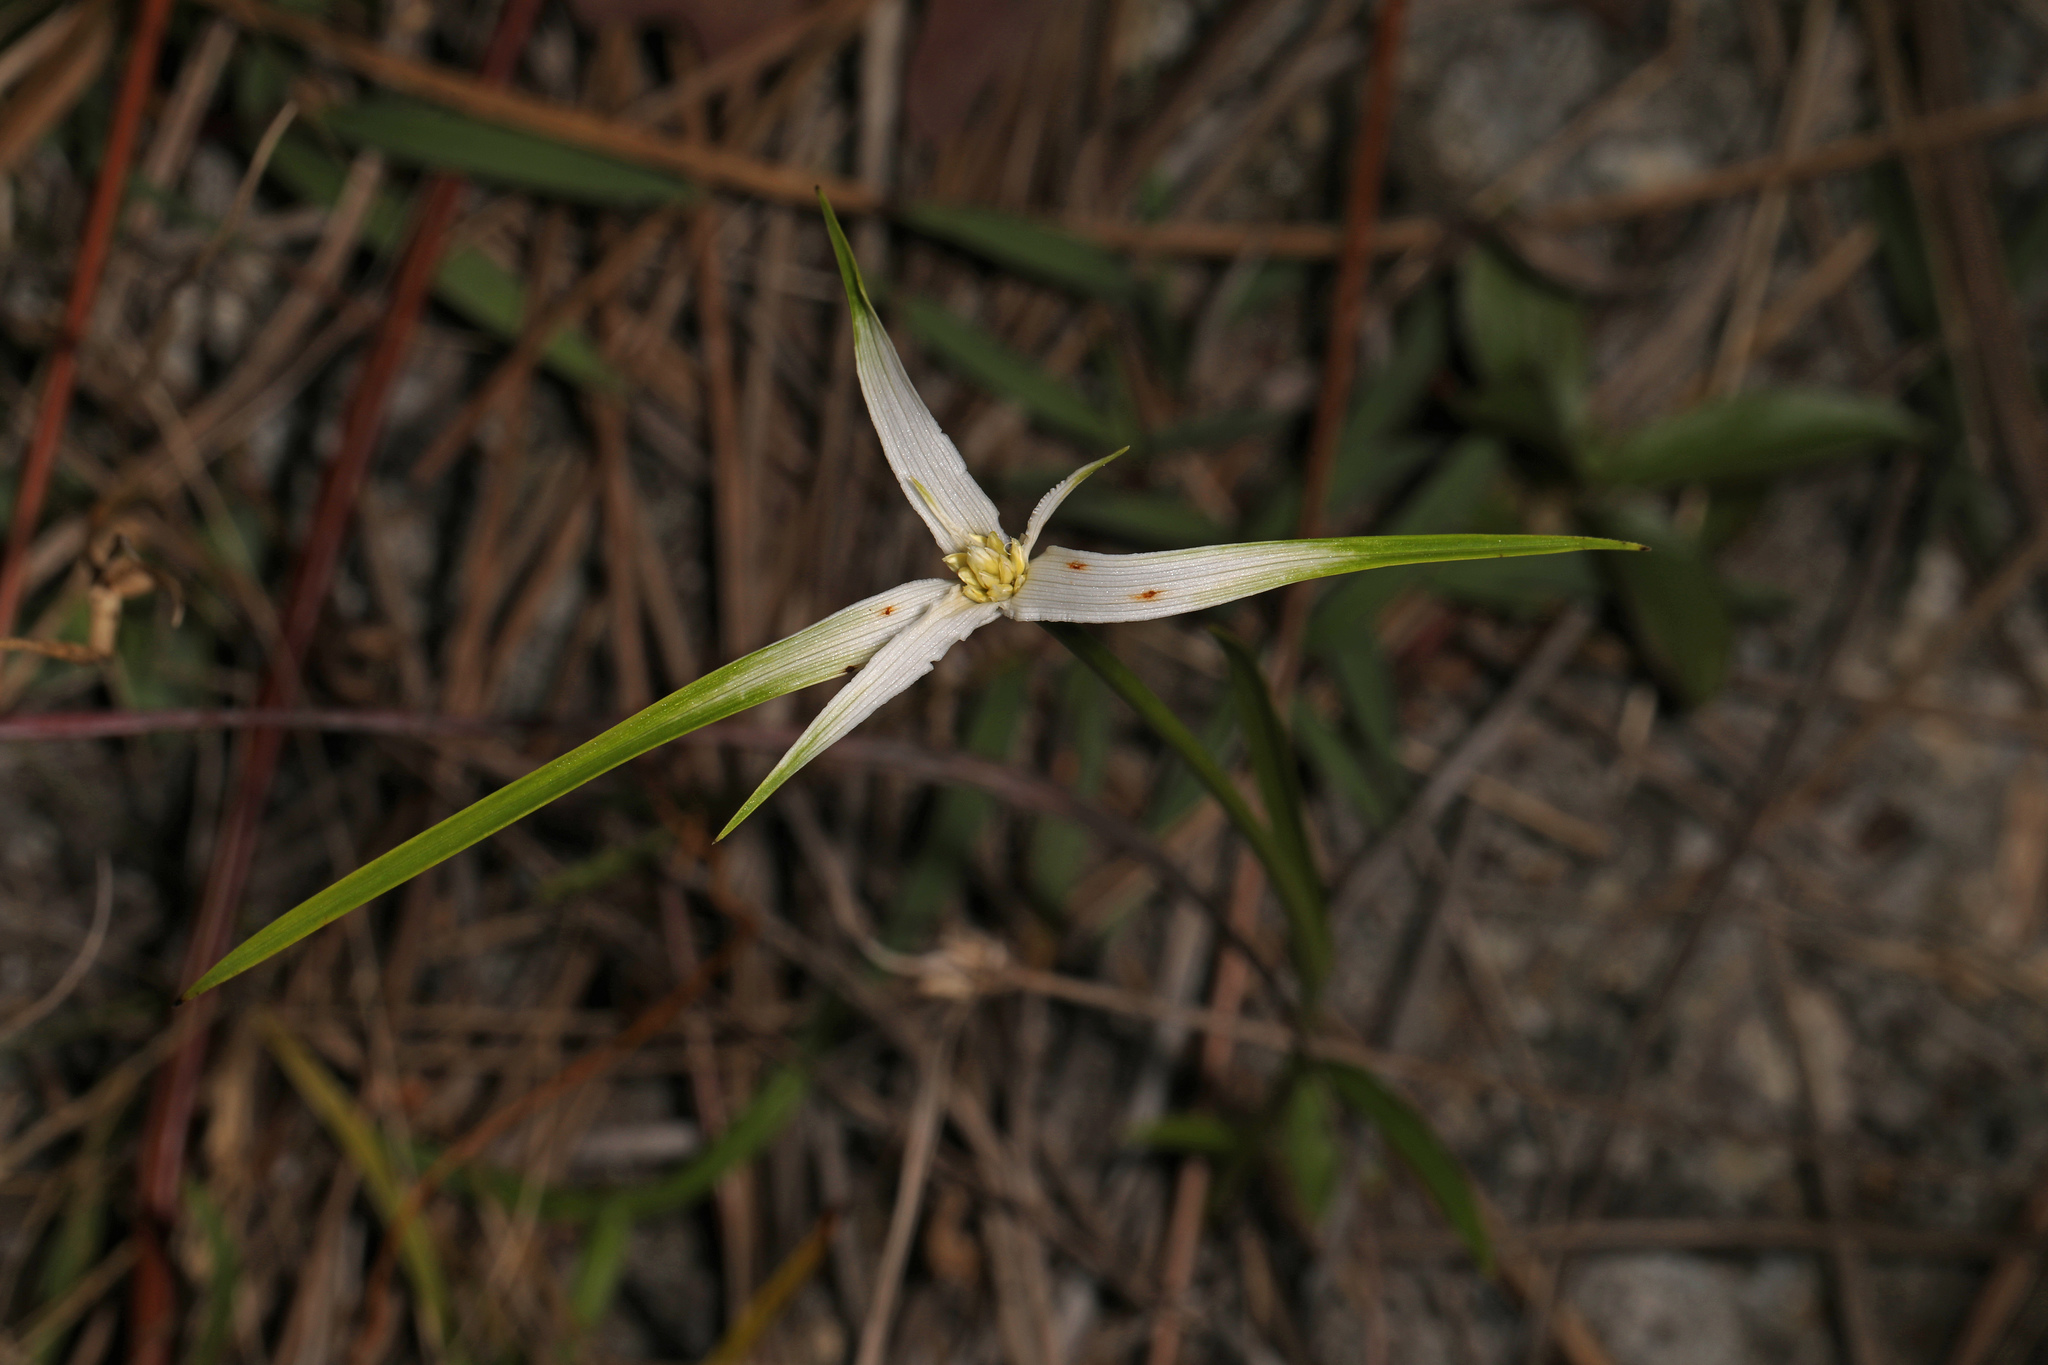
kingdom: Plantae
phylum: Tracheophyta
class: Liliopsida
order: Poales
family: Cyperaceae
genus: Rhynchospora
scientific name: Rhynchospora colorata
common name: Star sedge
